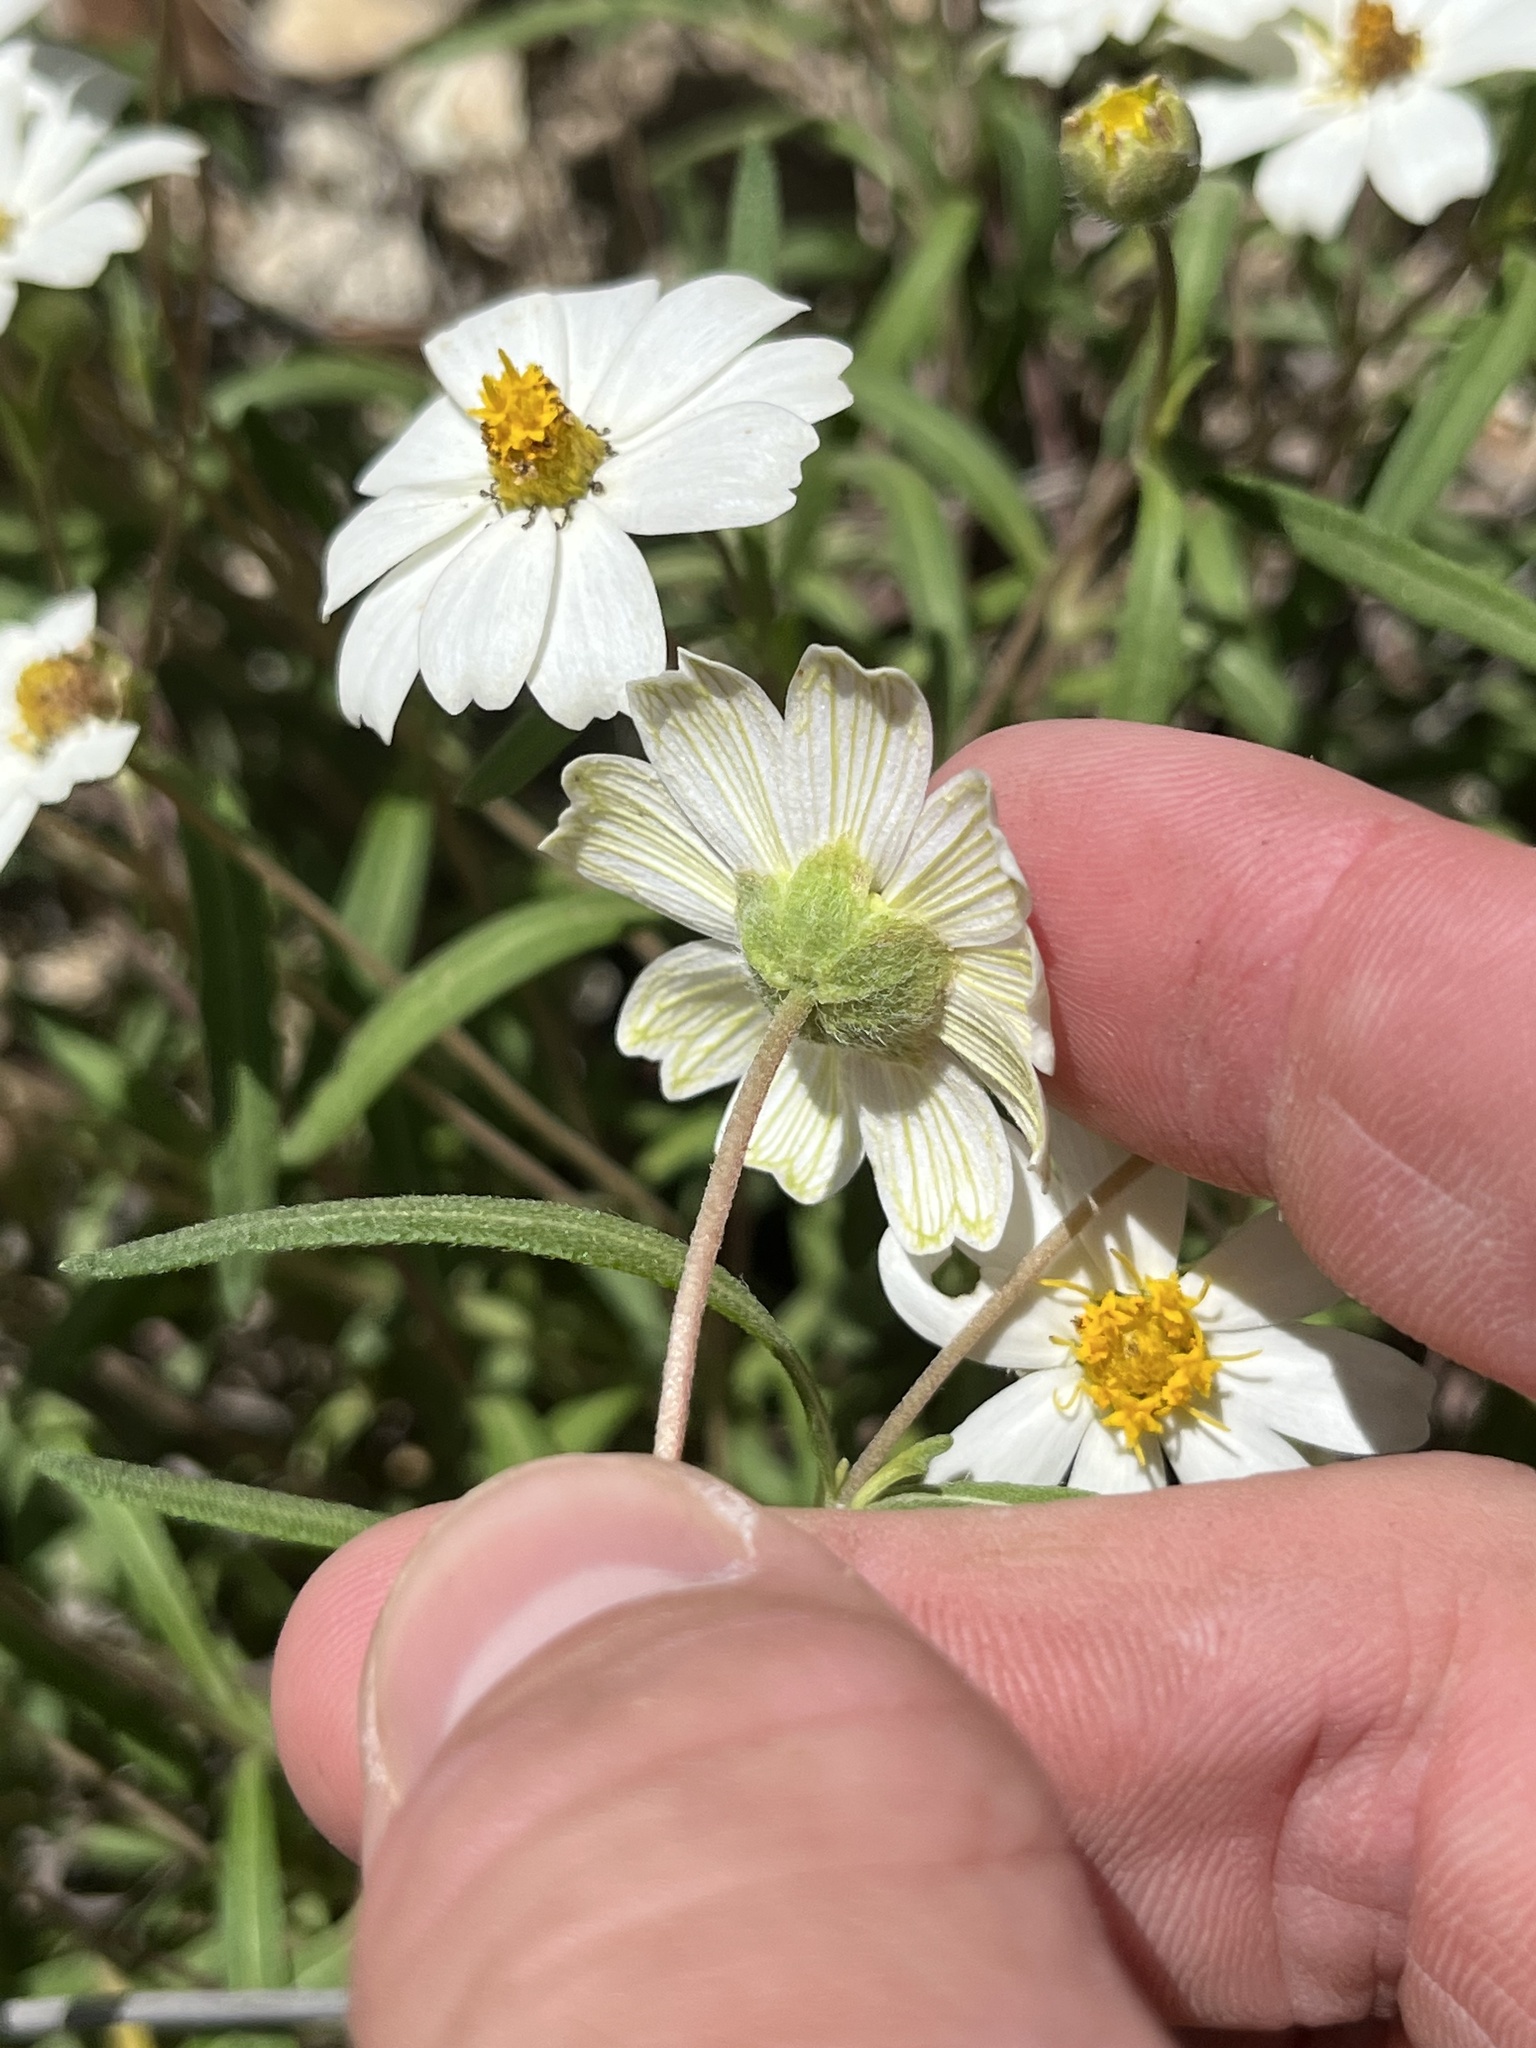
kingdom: Plantae
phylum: Tracheophyta
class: Magnoliopsida
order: Asterales
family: Asteraceae
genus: Melampodium
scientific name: Melampodium leucanthum
